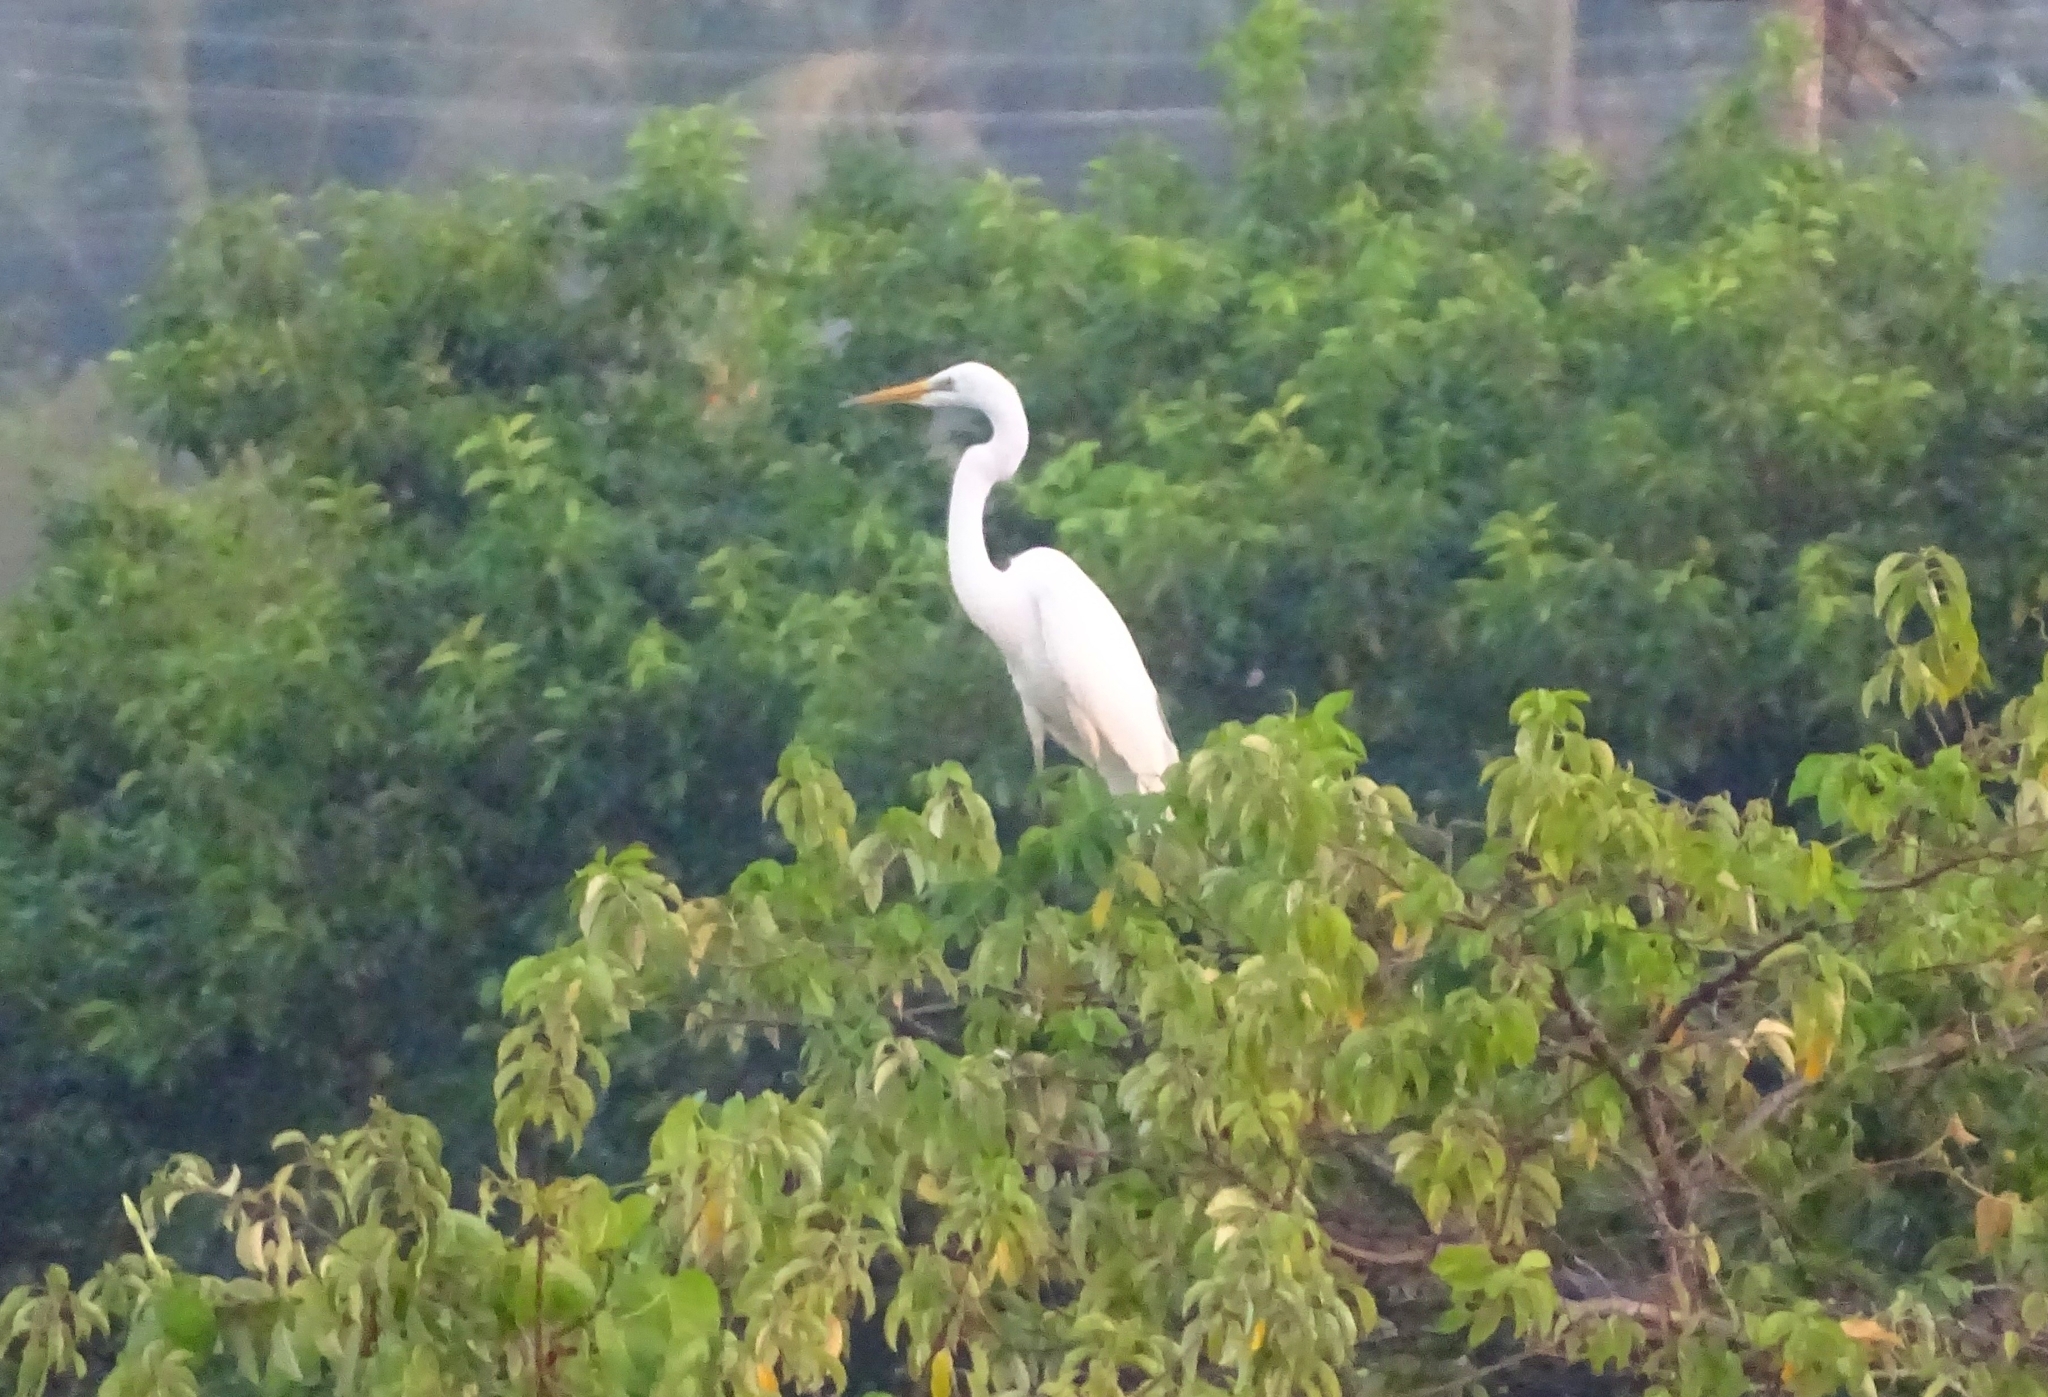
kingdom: Animalia
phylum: Chordata
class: Aves
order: Pelecaniformes
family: Ardeidae
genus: Ardea
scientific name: Ardea alba
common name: Great egret
